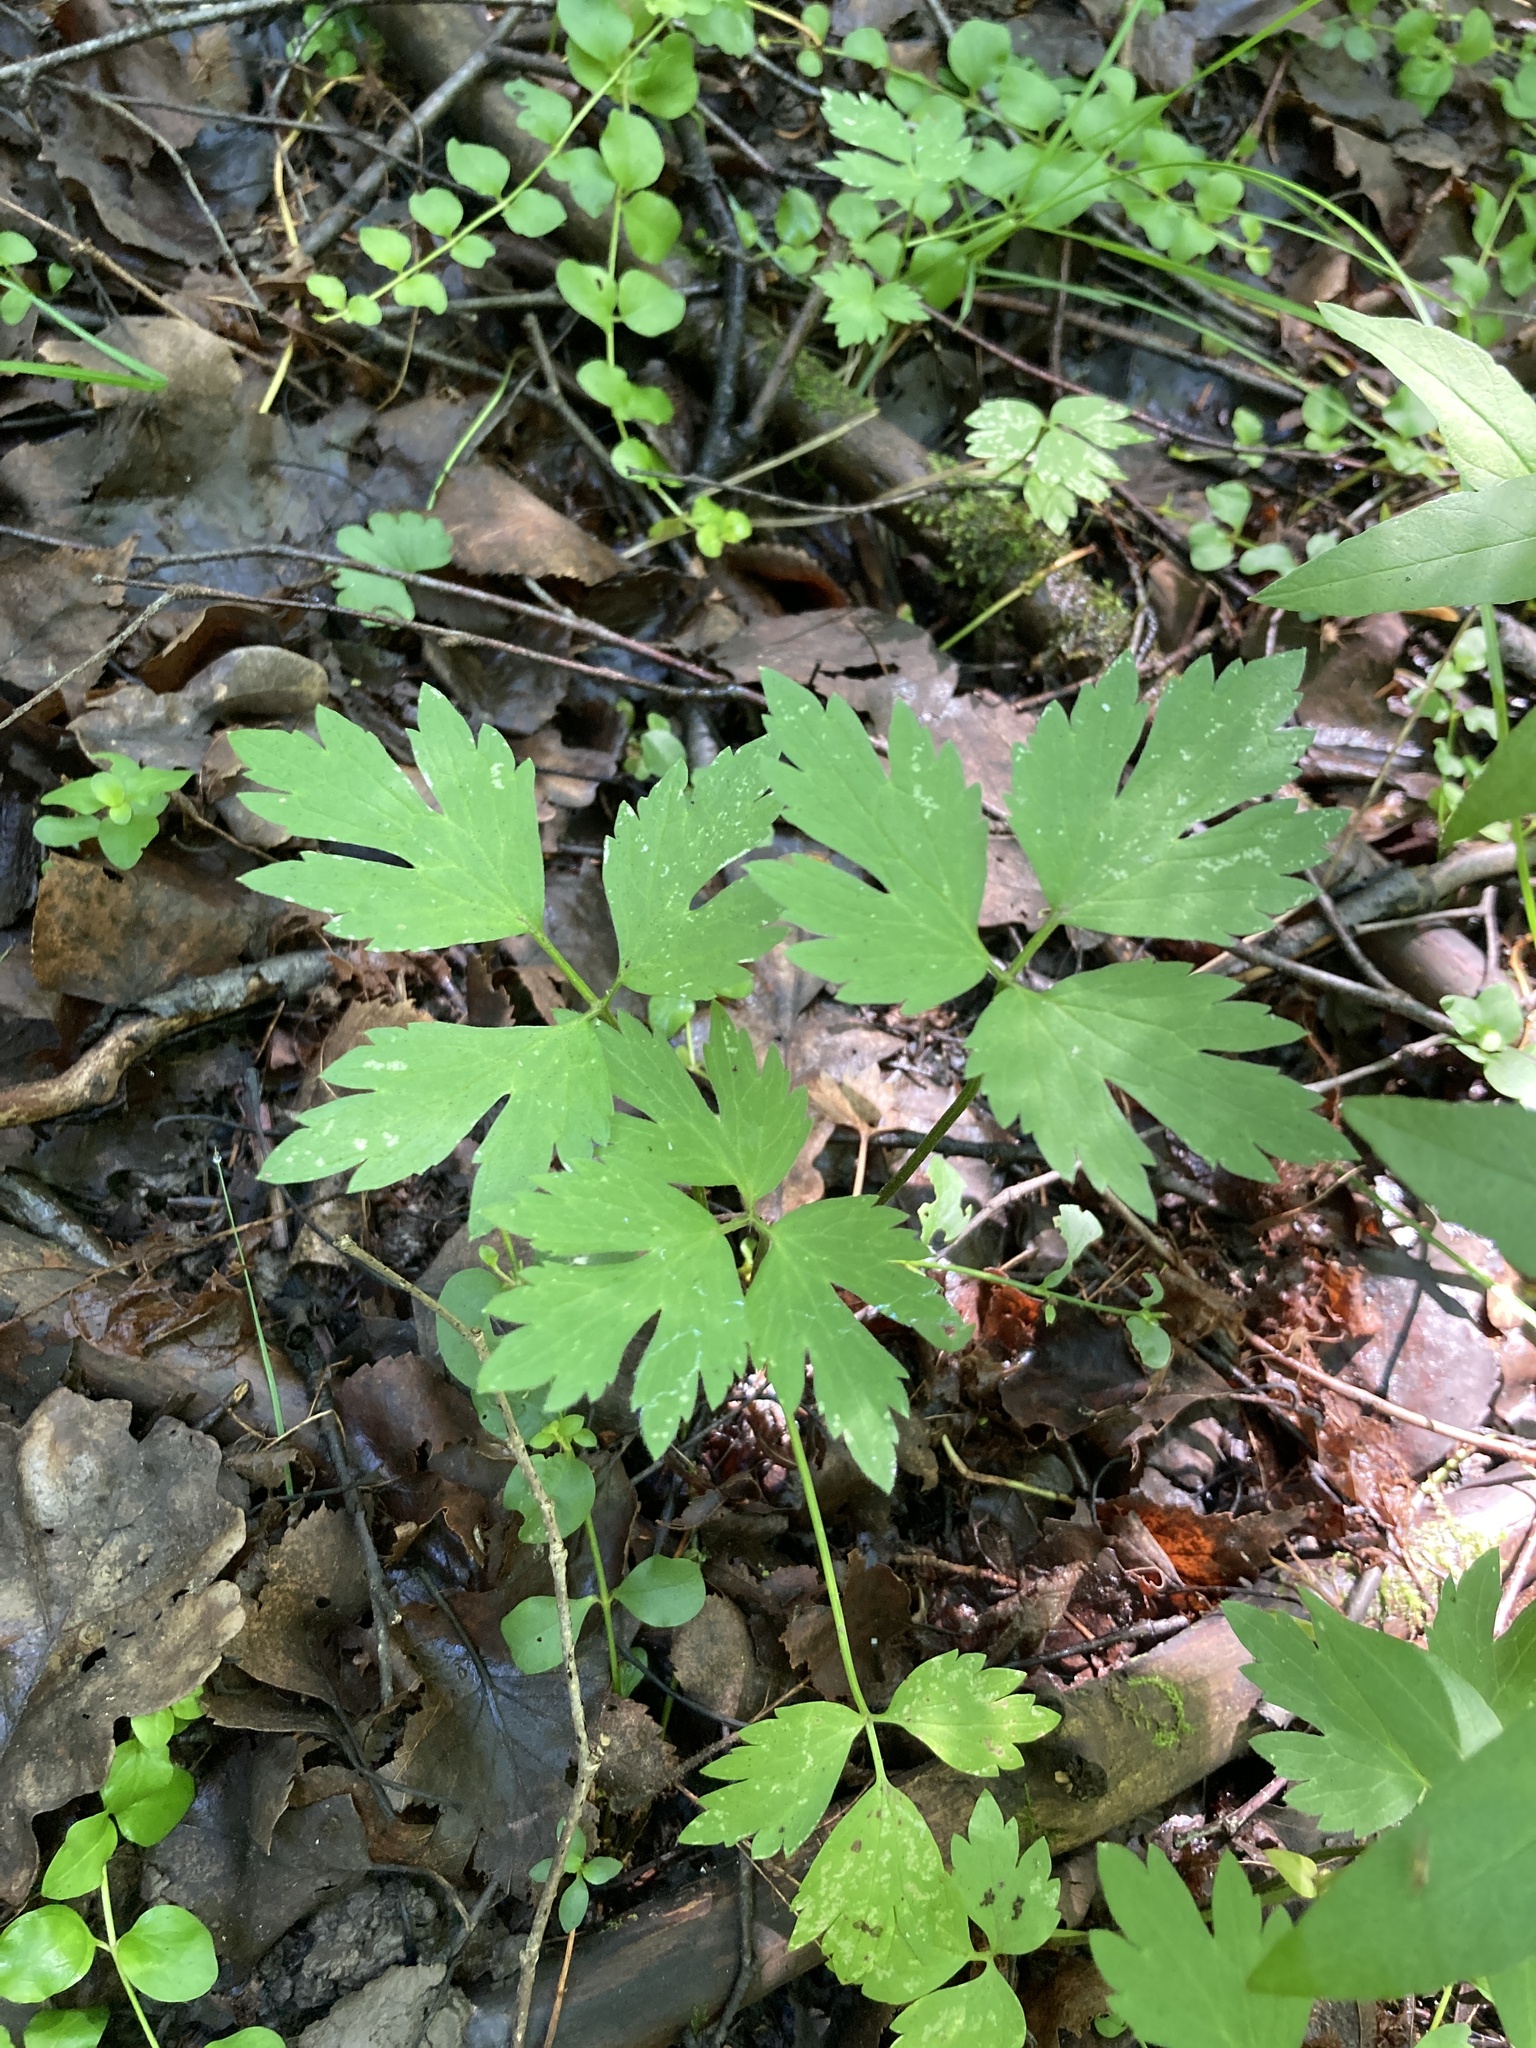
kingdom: Plantae
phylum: Tracheophyta
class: Magnoliopsida
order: Ranunculales
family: Ranunculaceae
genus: Ranunculus
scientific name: Ranunculus repens
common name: Creeping buttercup
